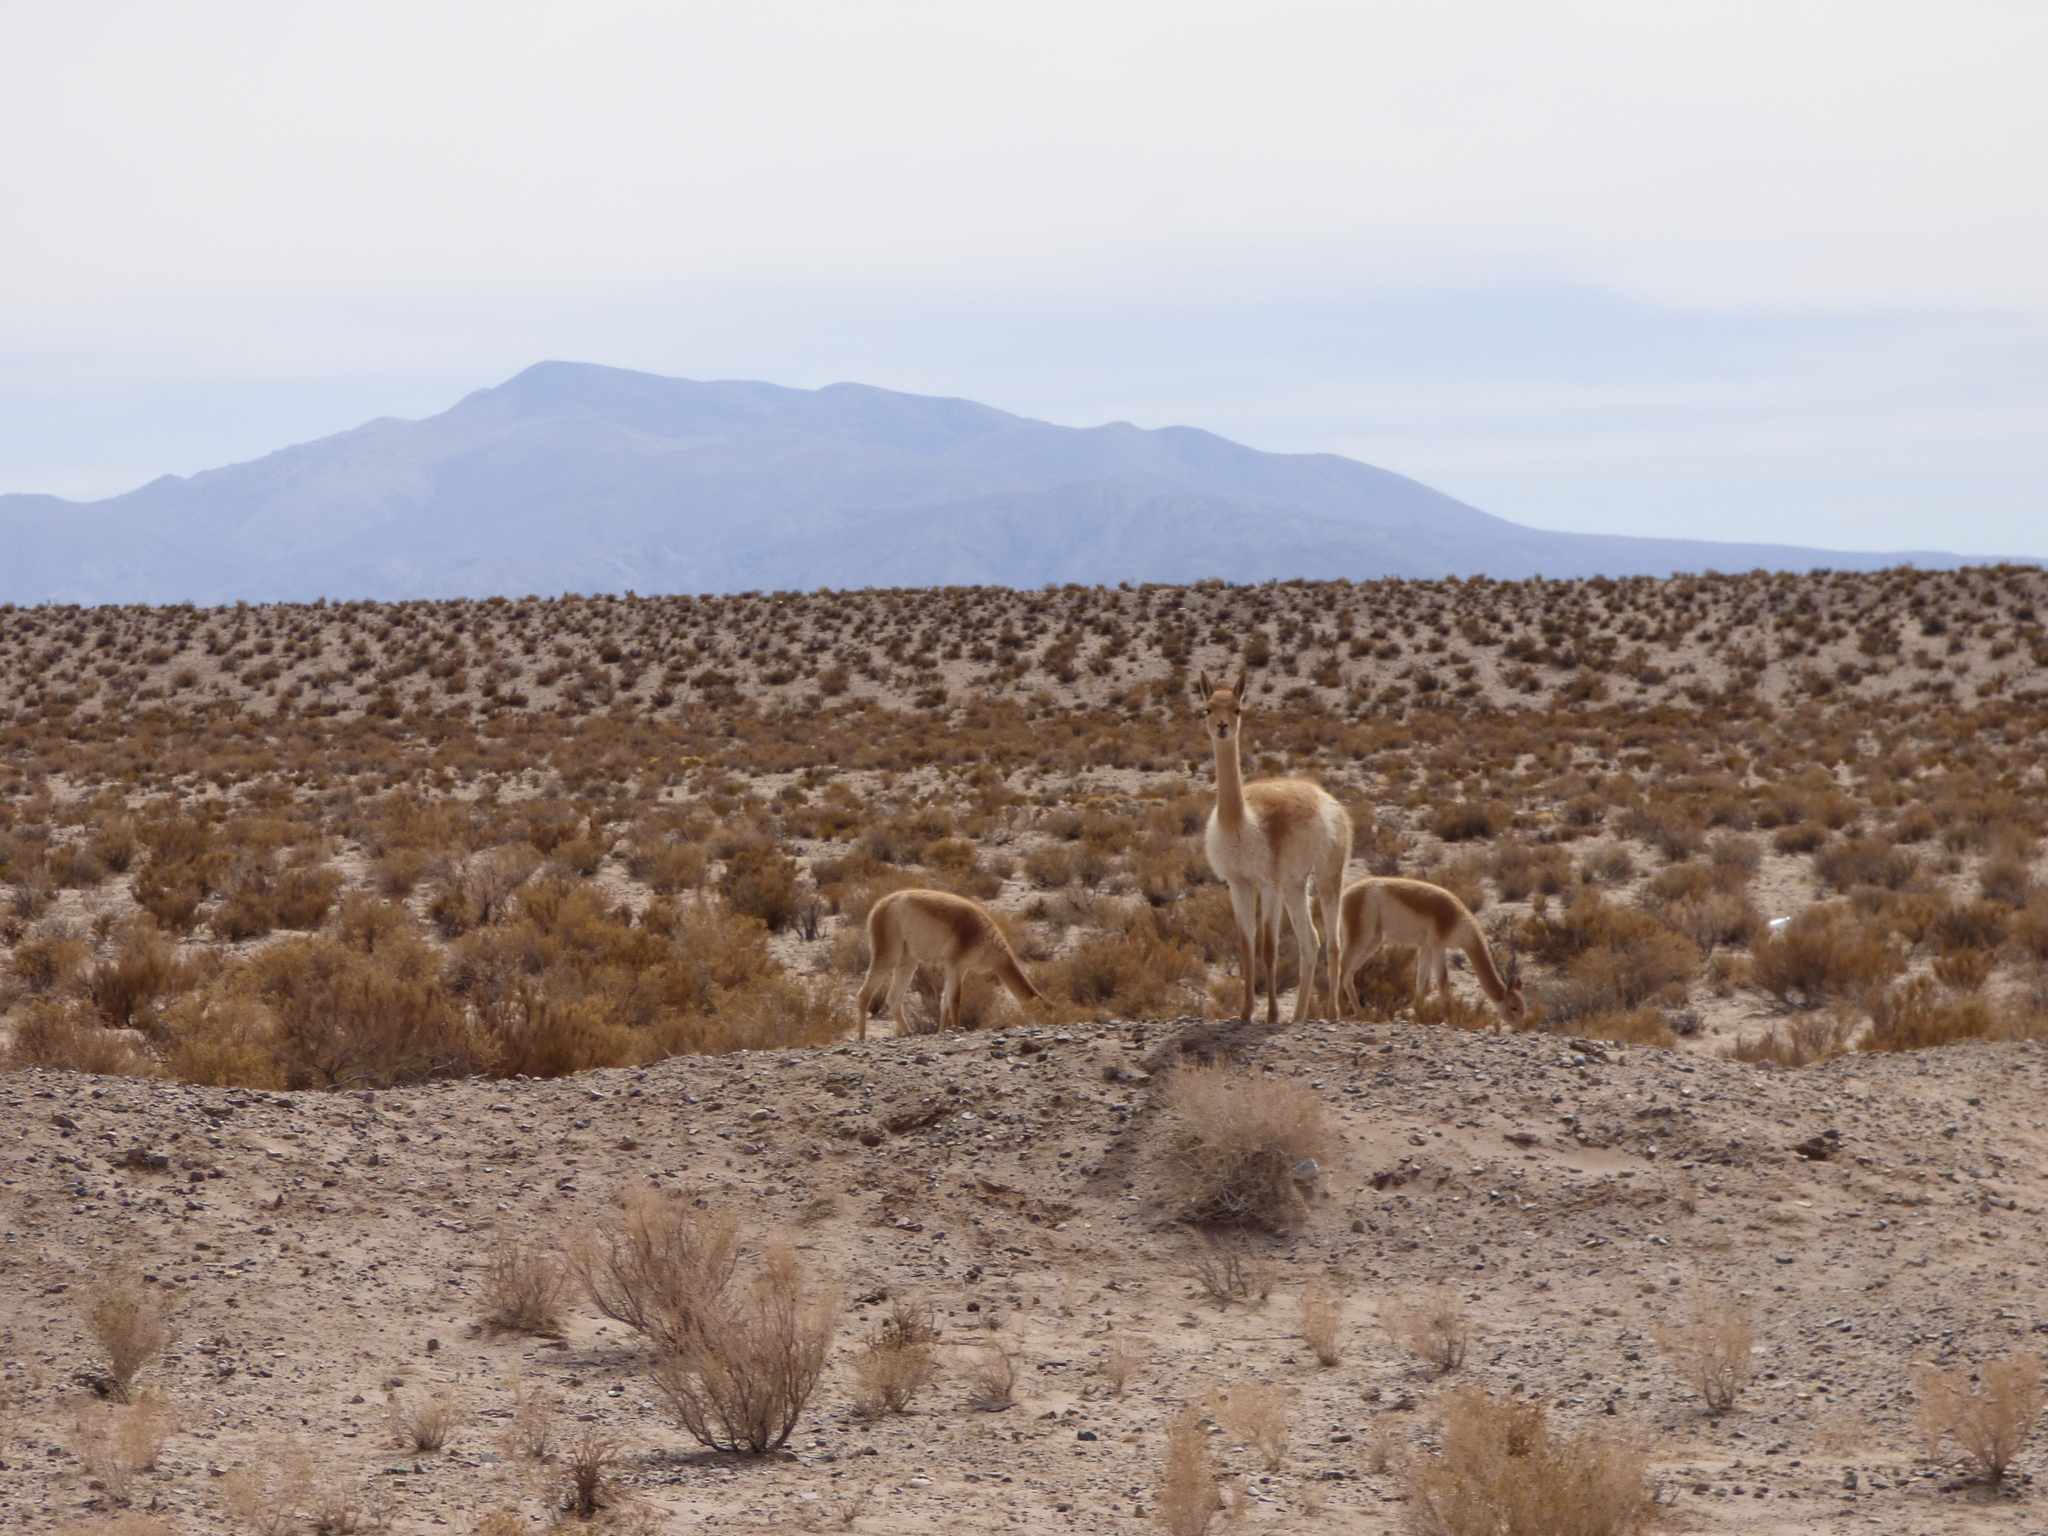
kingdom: Animalia
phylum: Chordata
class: Mammalia
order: Artiodactyla
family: Camelidae
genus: Vicugna
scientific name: Vicugna vicugna
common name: Vicugna
